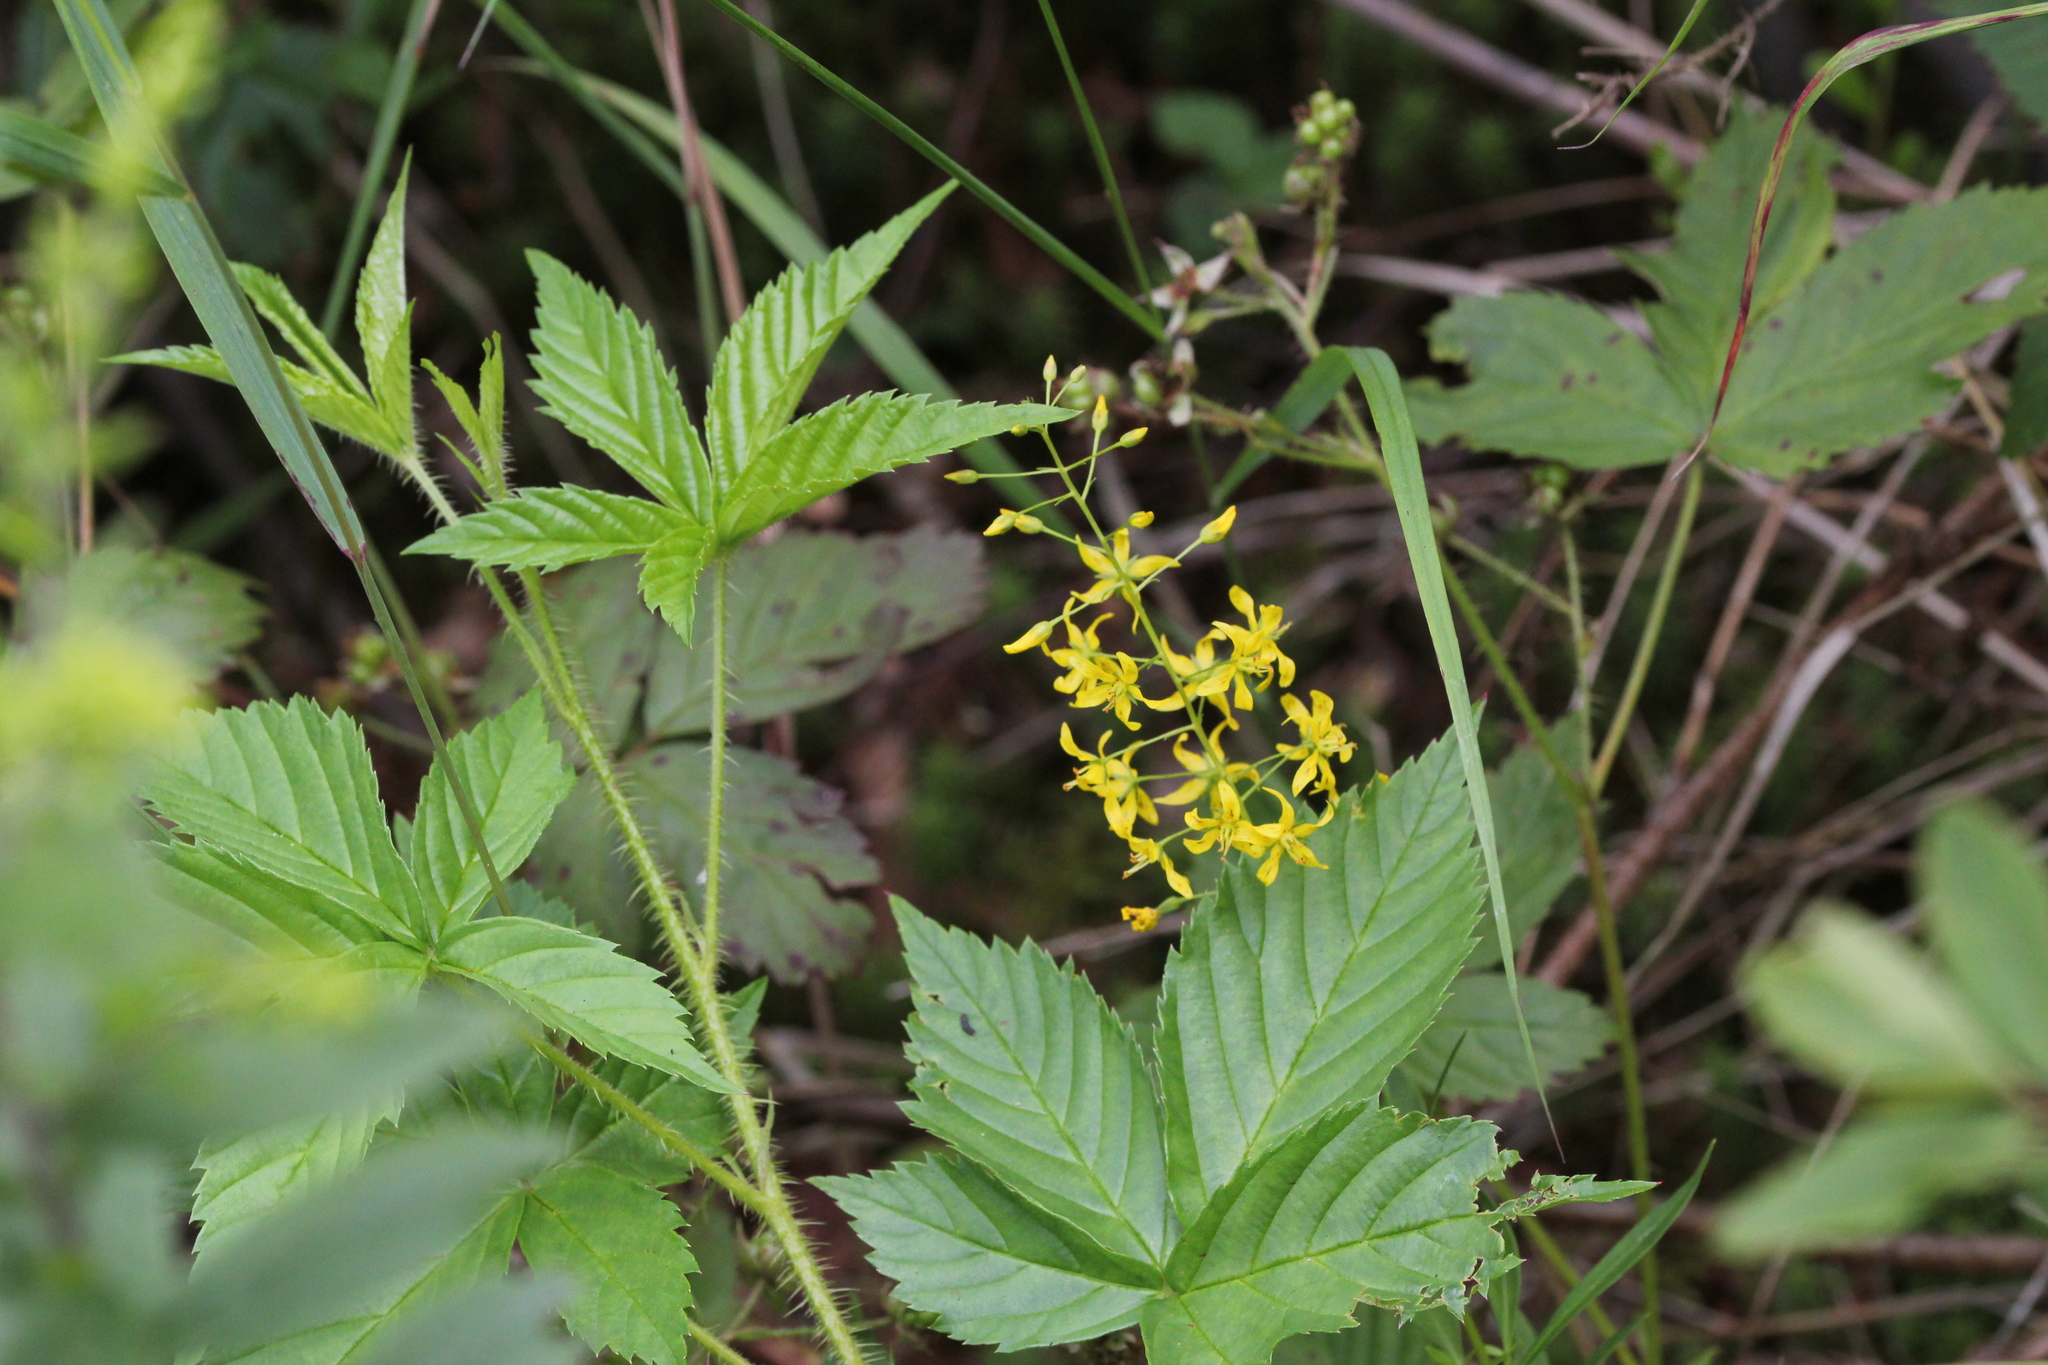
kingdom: Plantae
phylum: Tracheophyta
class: Magnoliopsida
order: Ericales
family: Primulaceae
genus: Lysimachia
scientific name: Lysimachia terrestris
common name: Lake loosestrife
